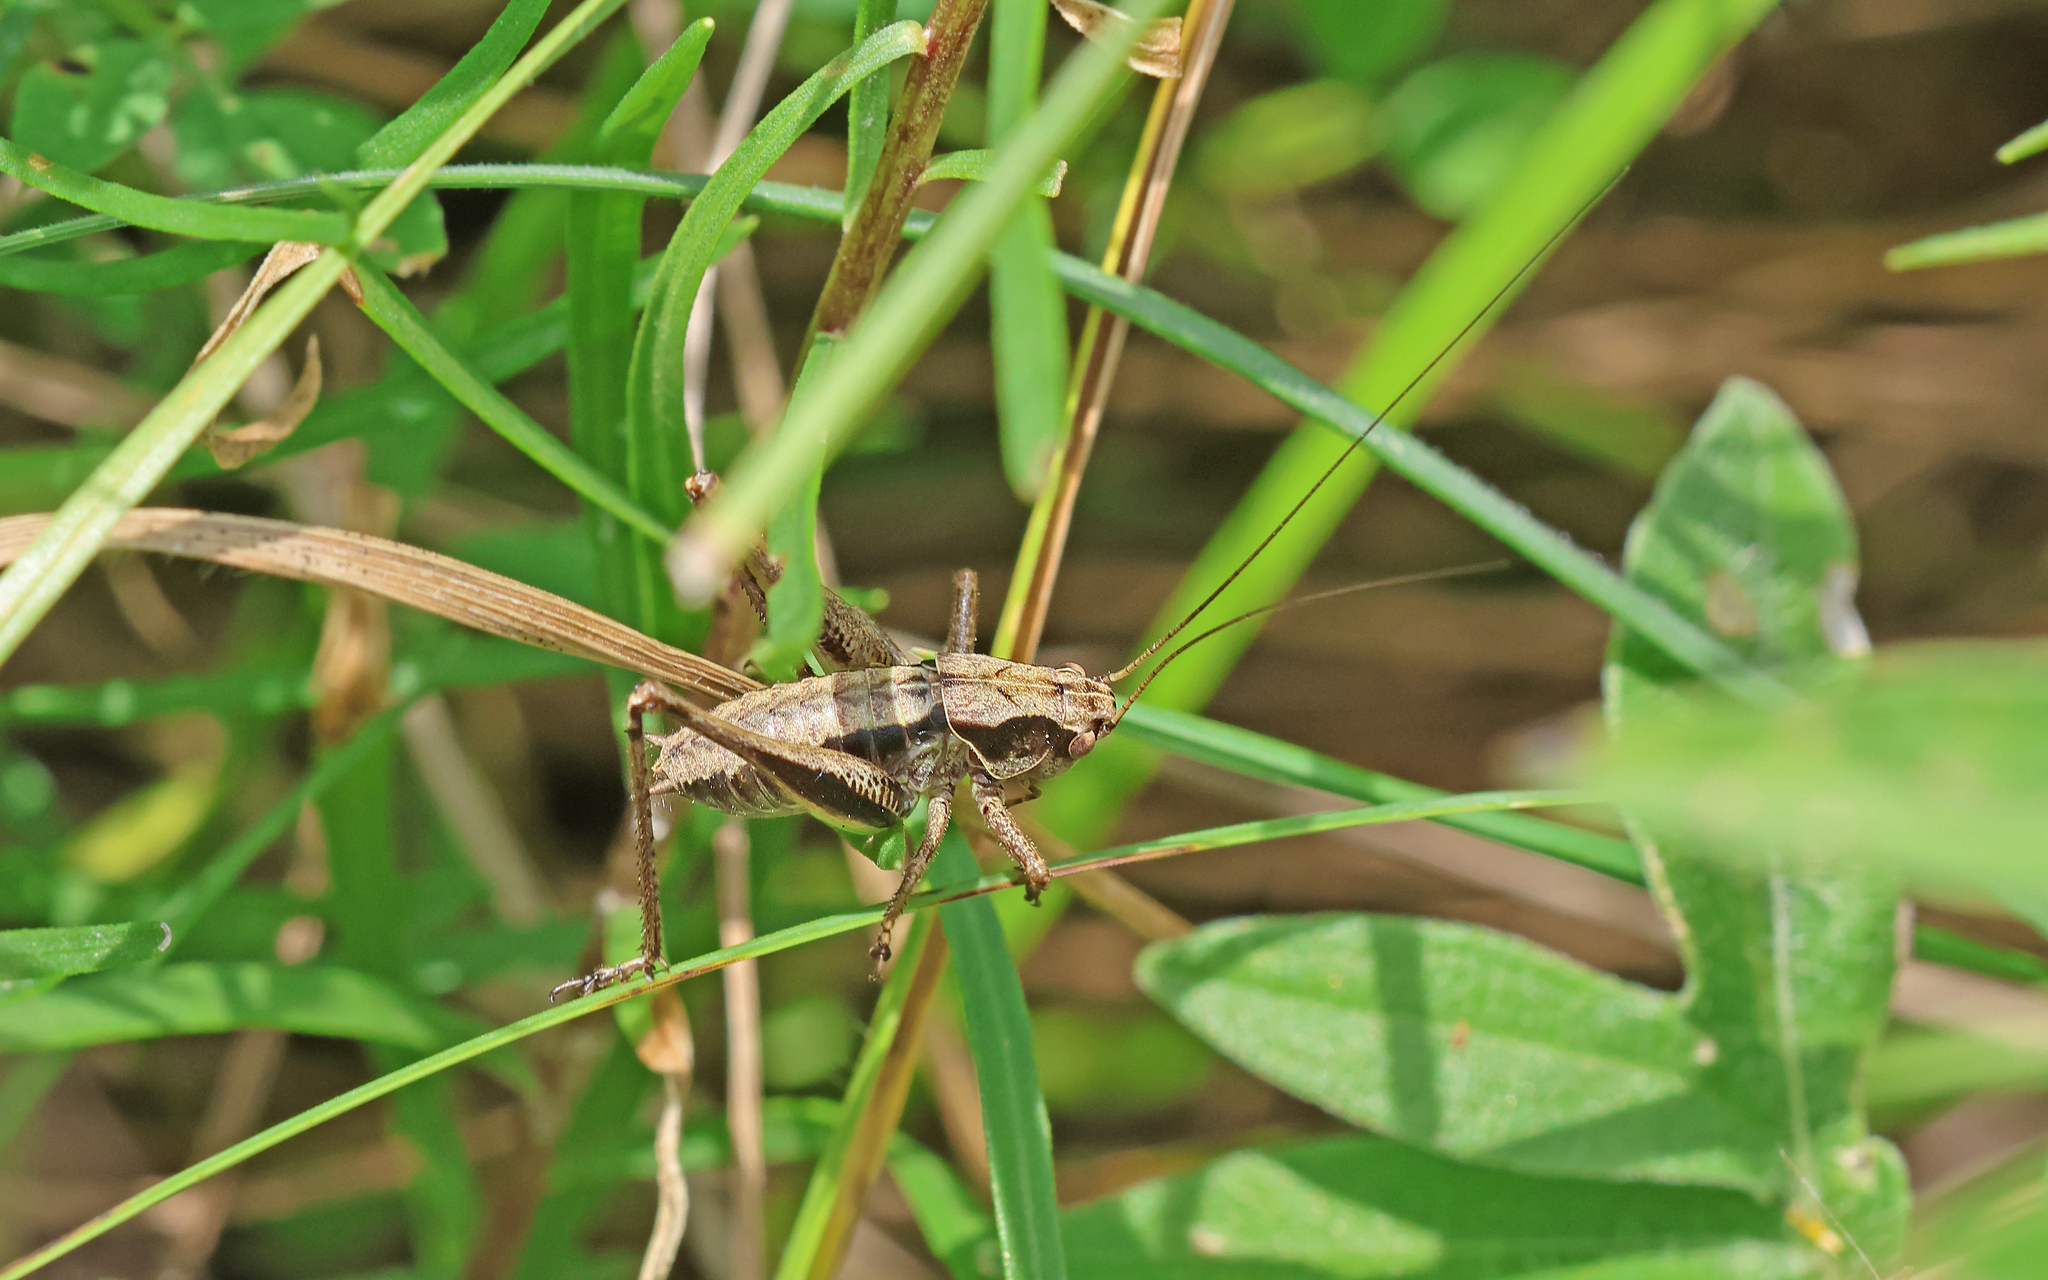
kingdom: Animalia
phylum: Arthropoda
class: Insecta
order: Orthoptera
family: Tettigoniidae
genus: Pholidoptera
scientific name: Pholidoptera griseoaptera
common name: Dark bush-cricket
